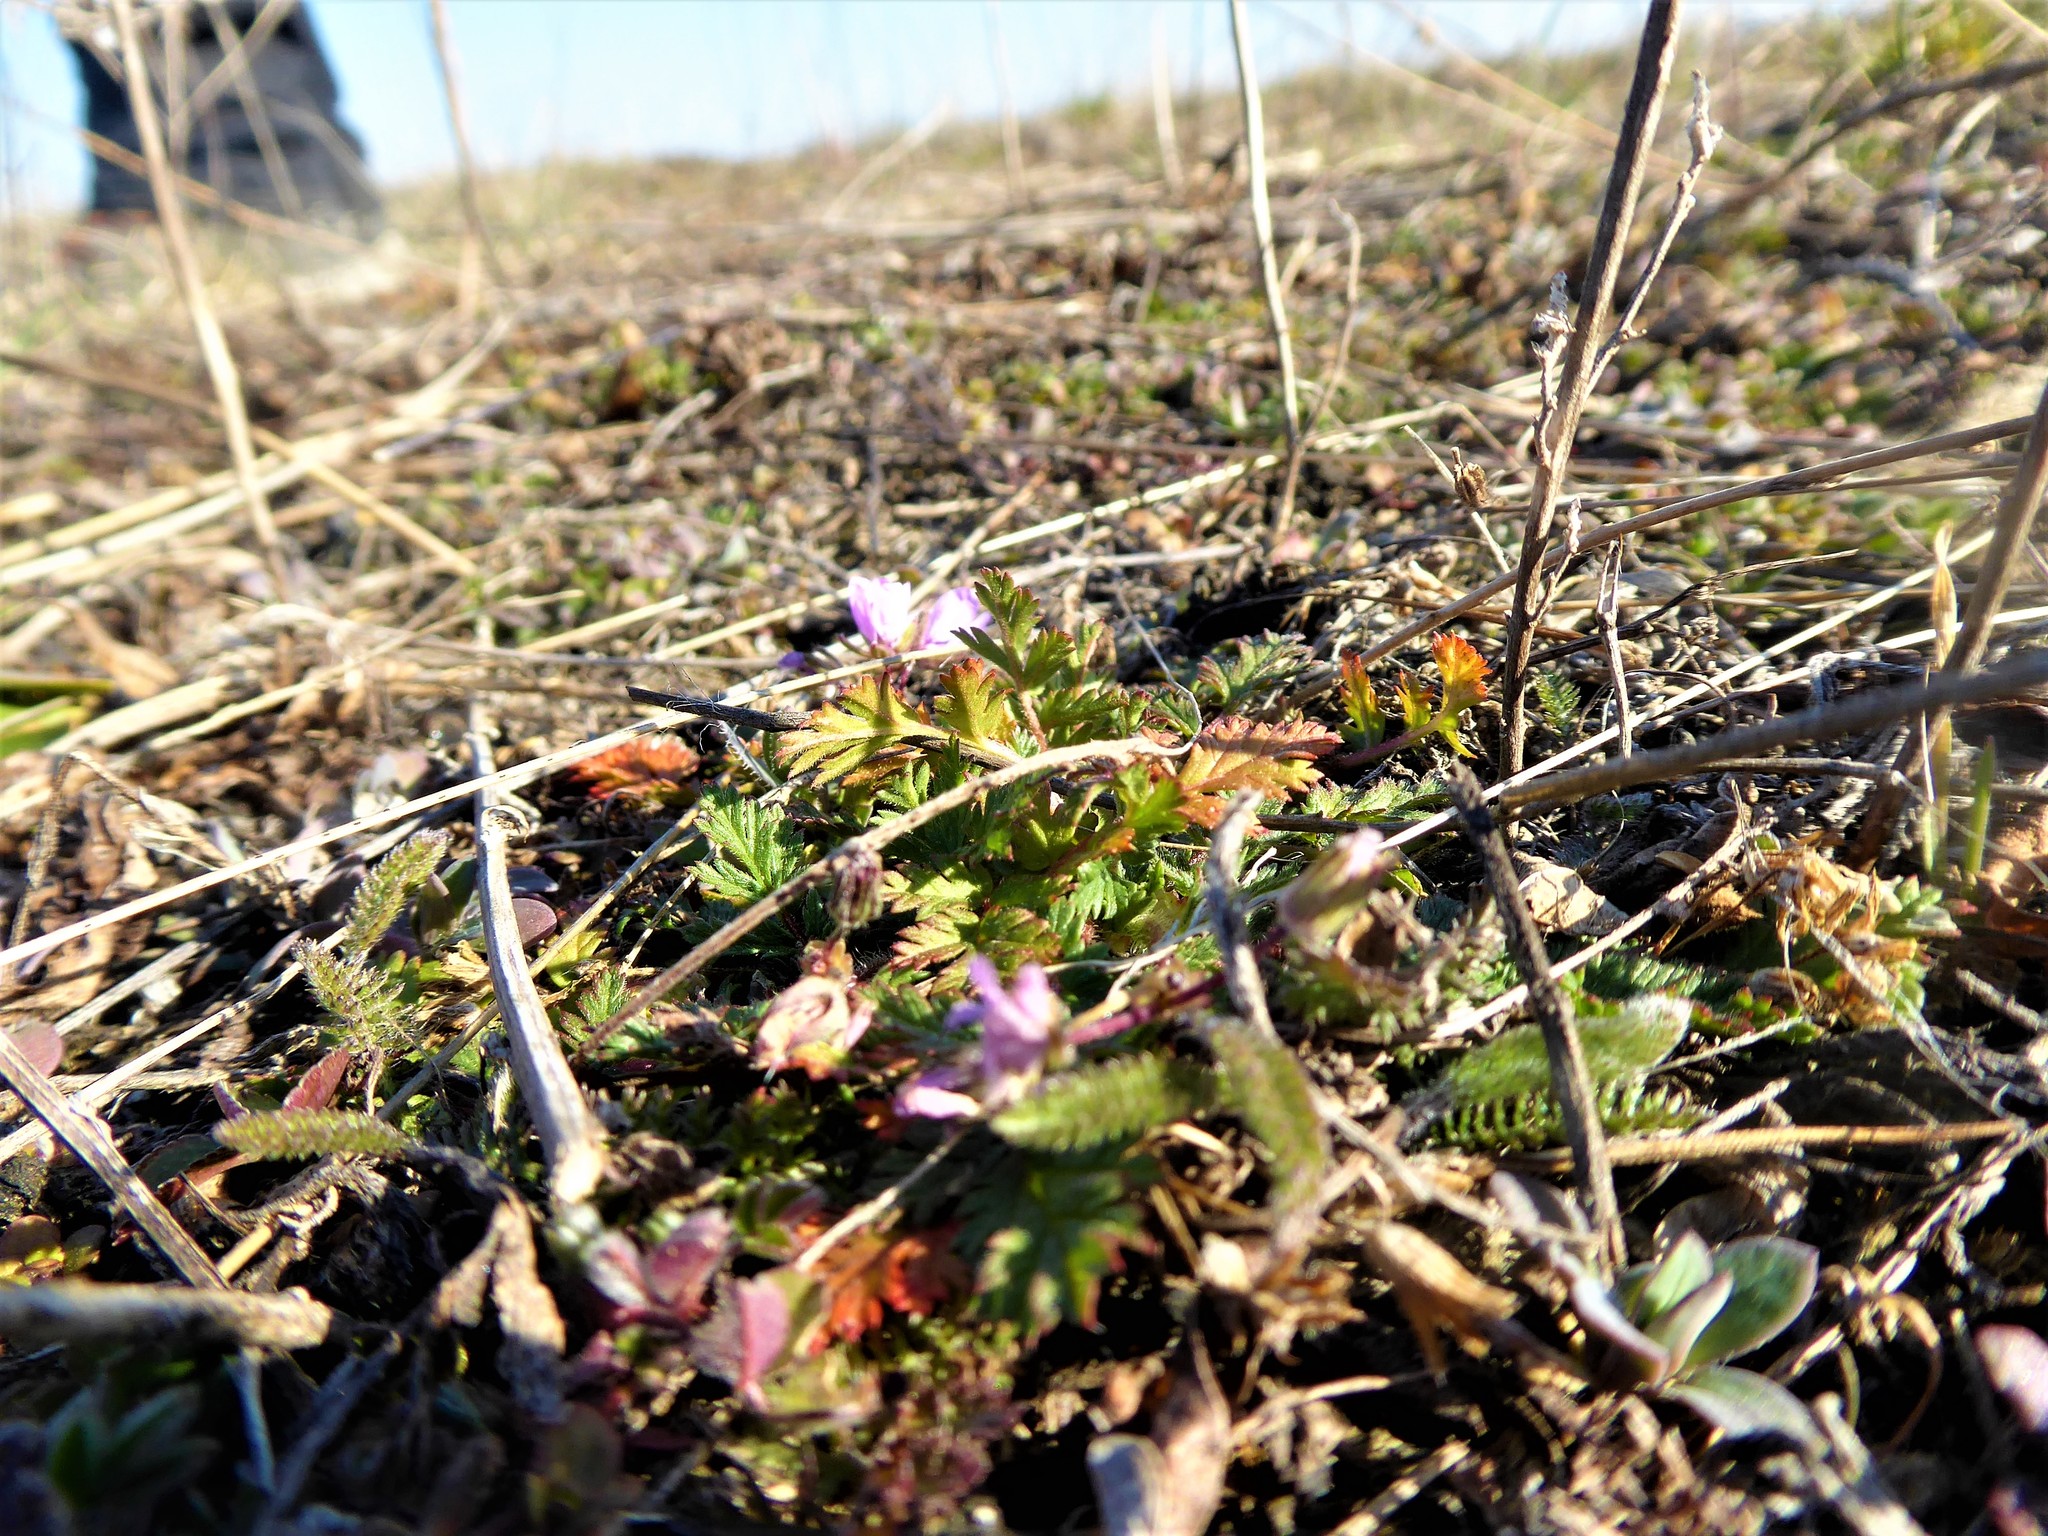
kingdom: Plantae
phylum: Tracheophyta
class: Magnoliopsida
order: Geraniales
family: Geraniaceae
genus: Erodium
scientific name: Erodium cicutarium
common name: Common stork's-bill
